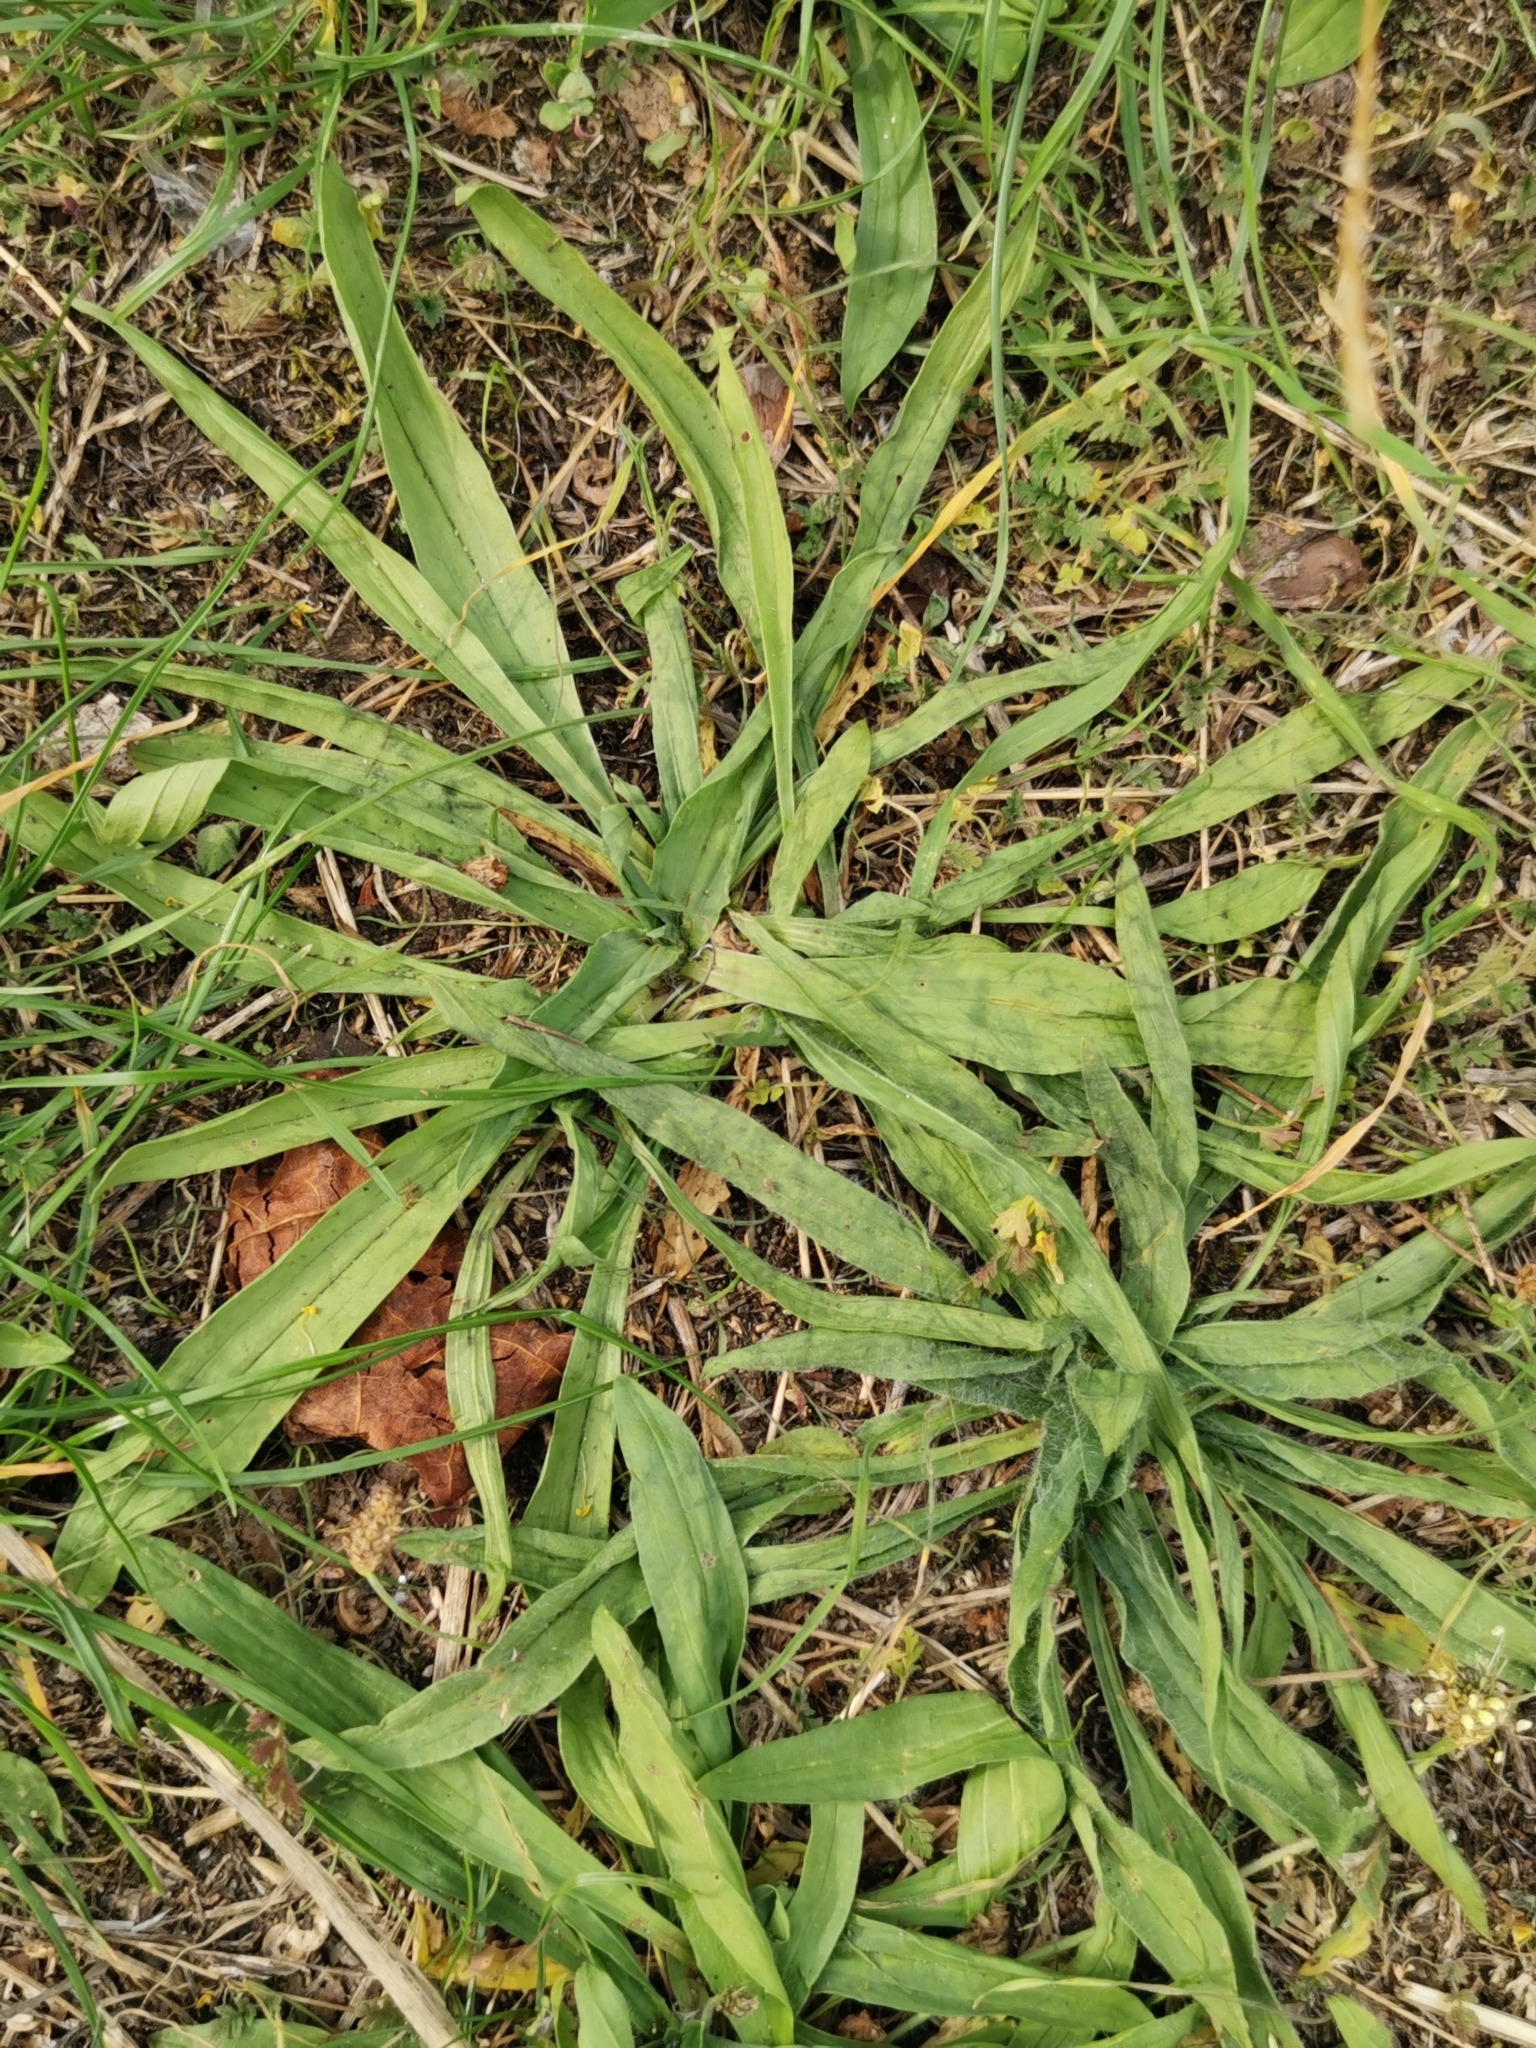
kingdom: Plantae
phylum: Tracheophyta
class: Magnoliopsida
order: Lamiales
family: Plantaginaceae
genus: Plantago
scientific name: Plantago lanceolata
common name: Ribwort plantain
